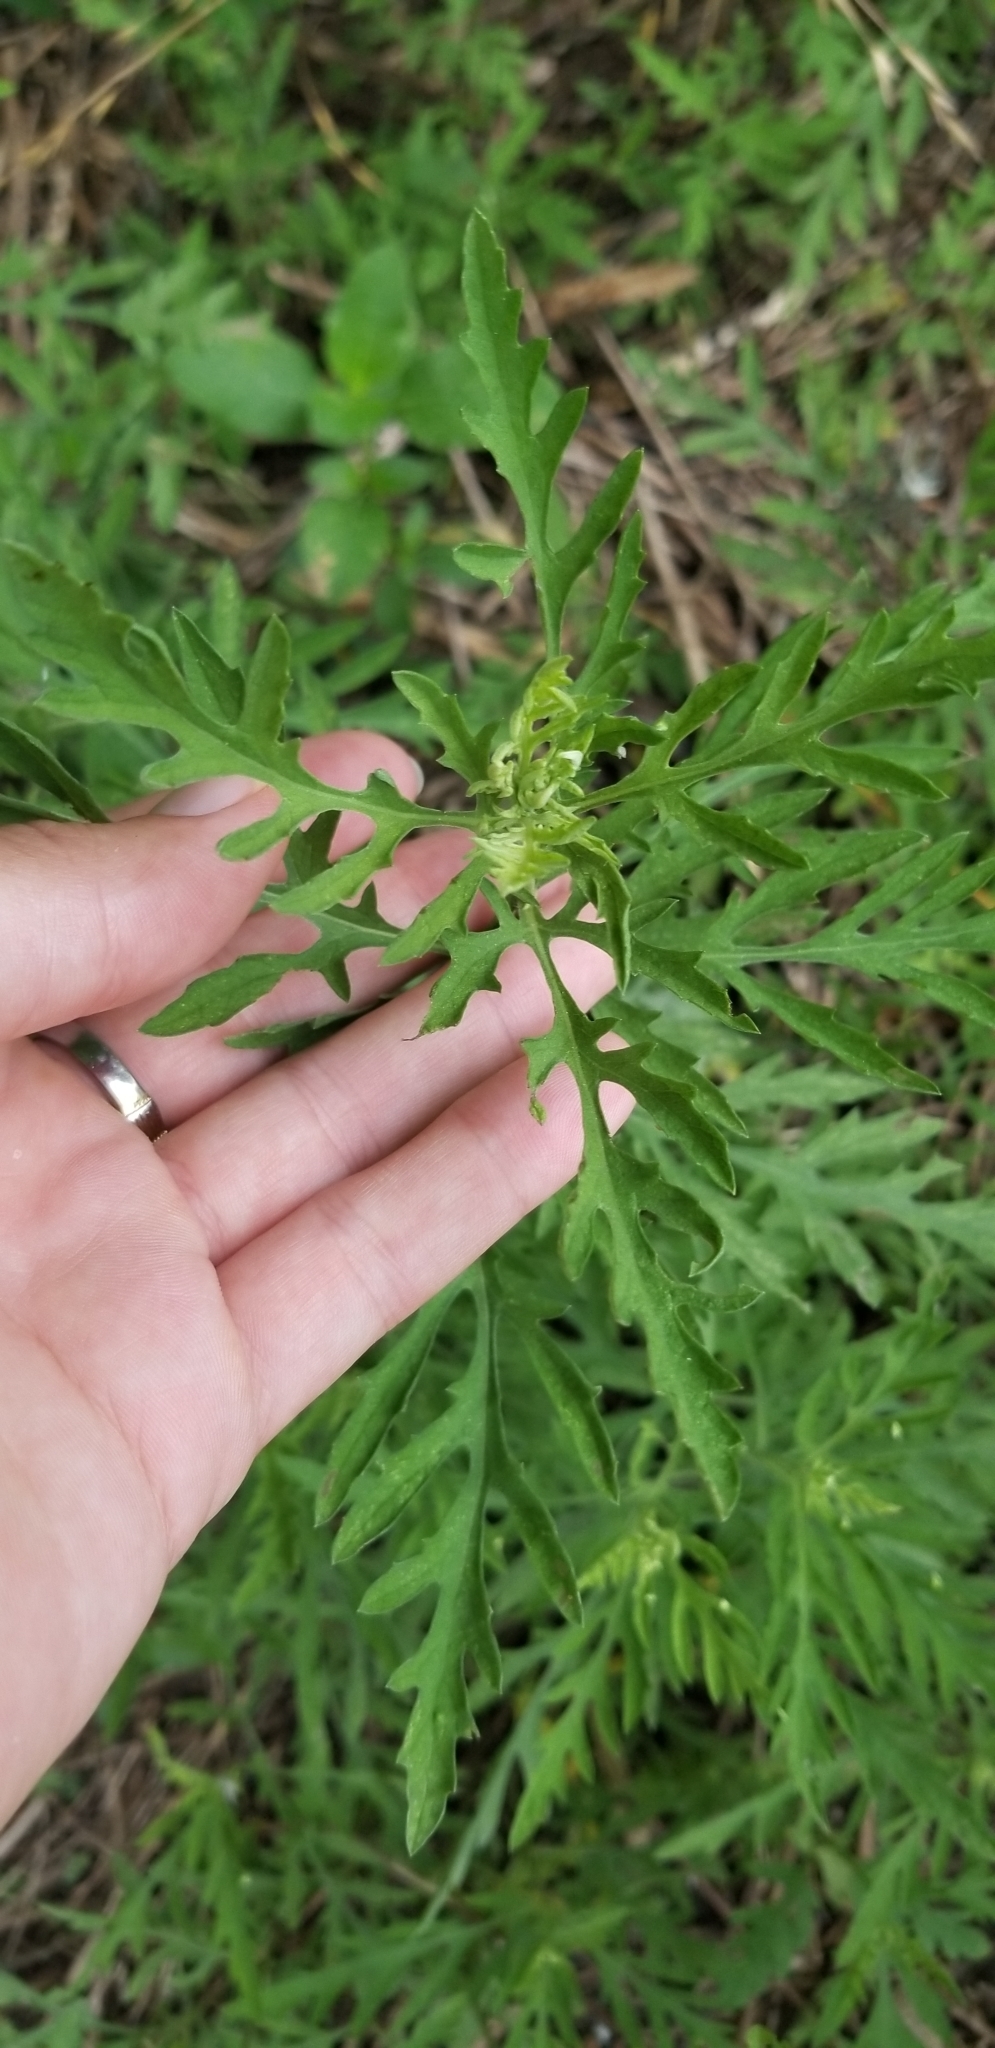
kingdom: Plantae
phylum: Tracheophyta
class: Magnoliopsida
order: Asterales
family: Asteraceae
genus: Ambrosia
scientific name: Ambrosia psilostachya
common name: Perennial ragweed
